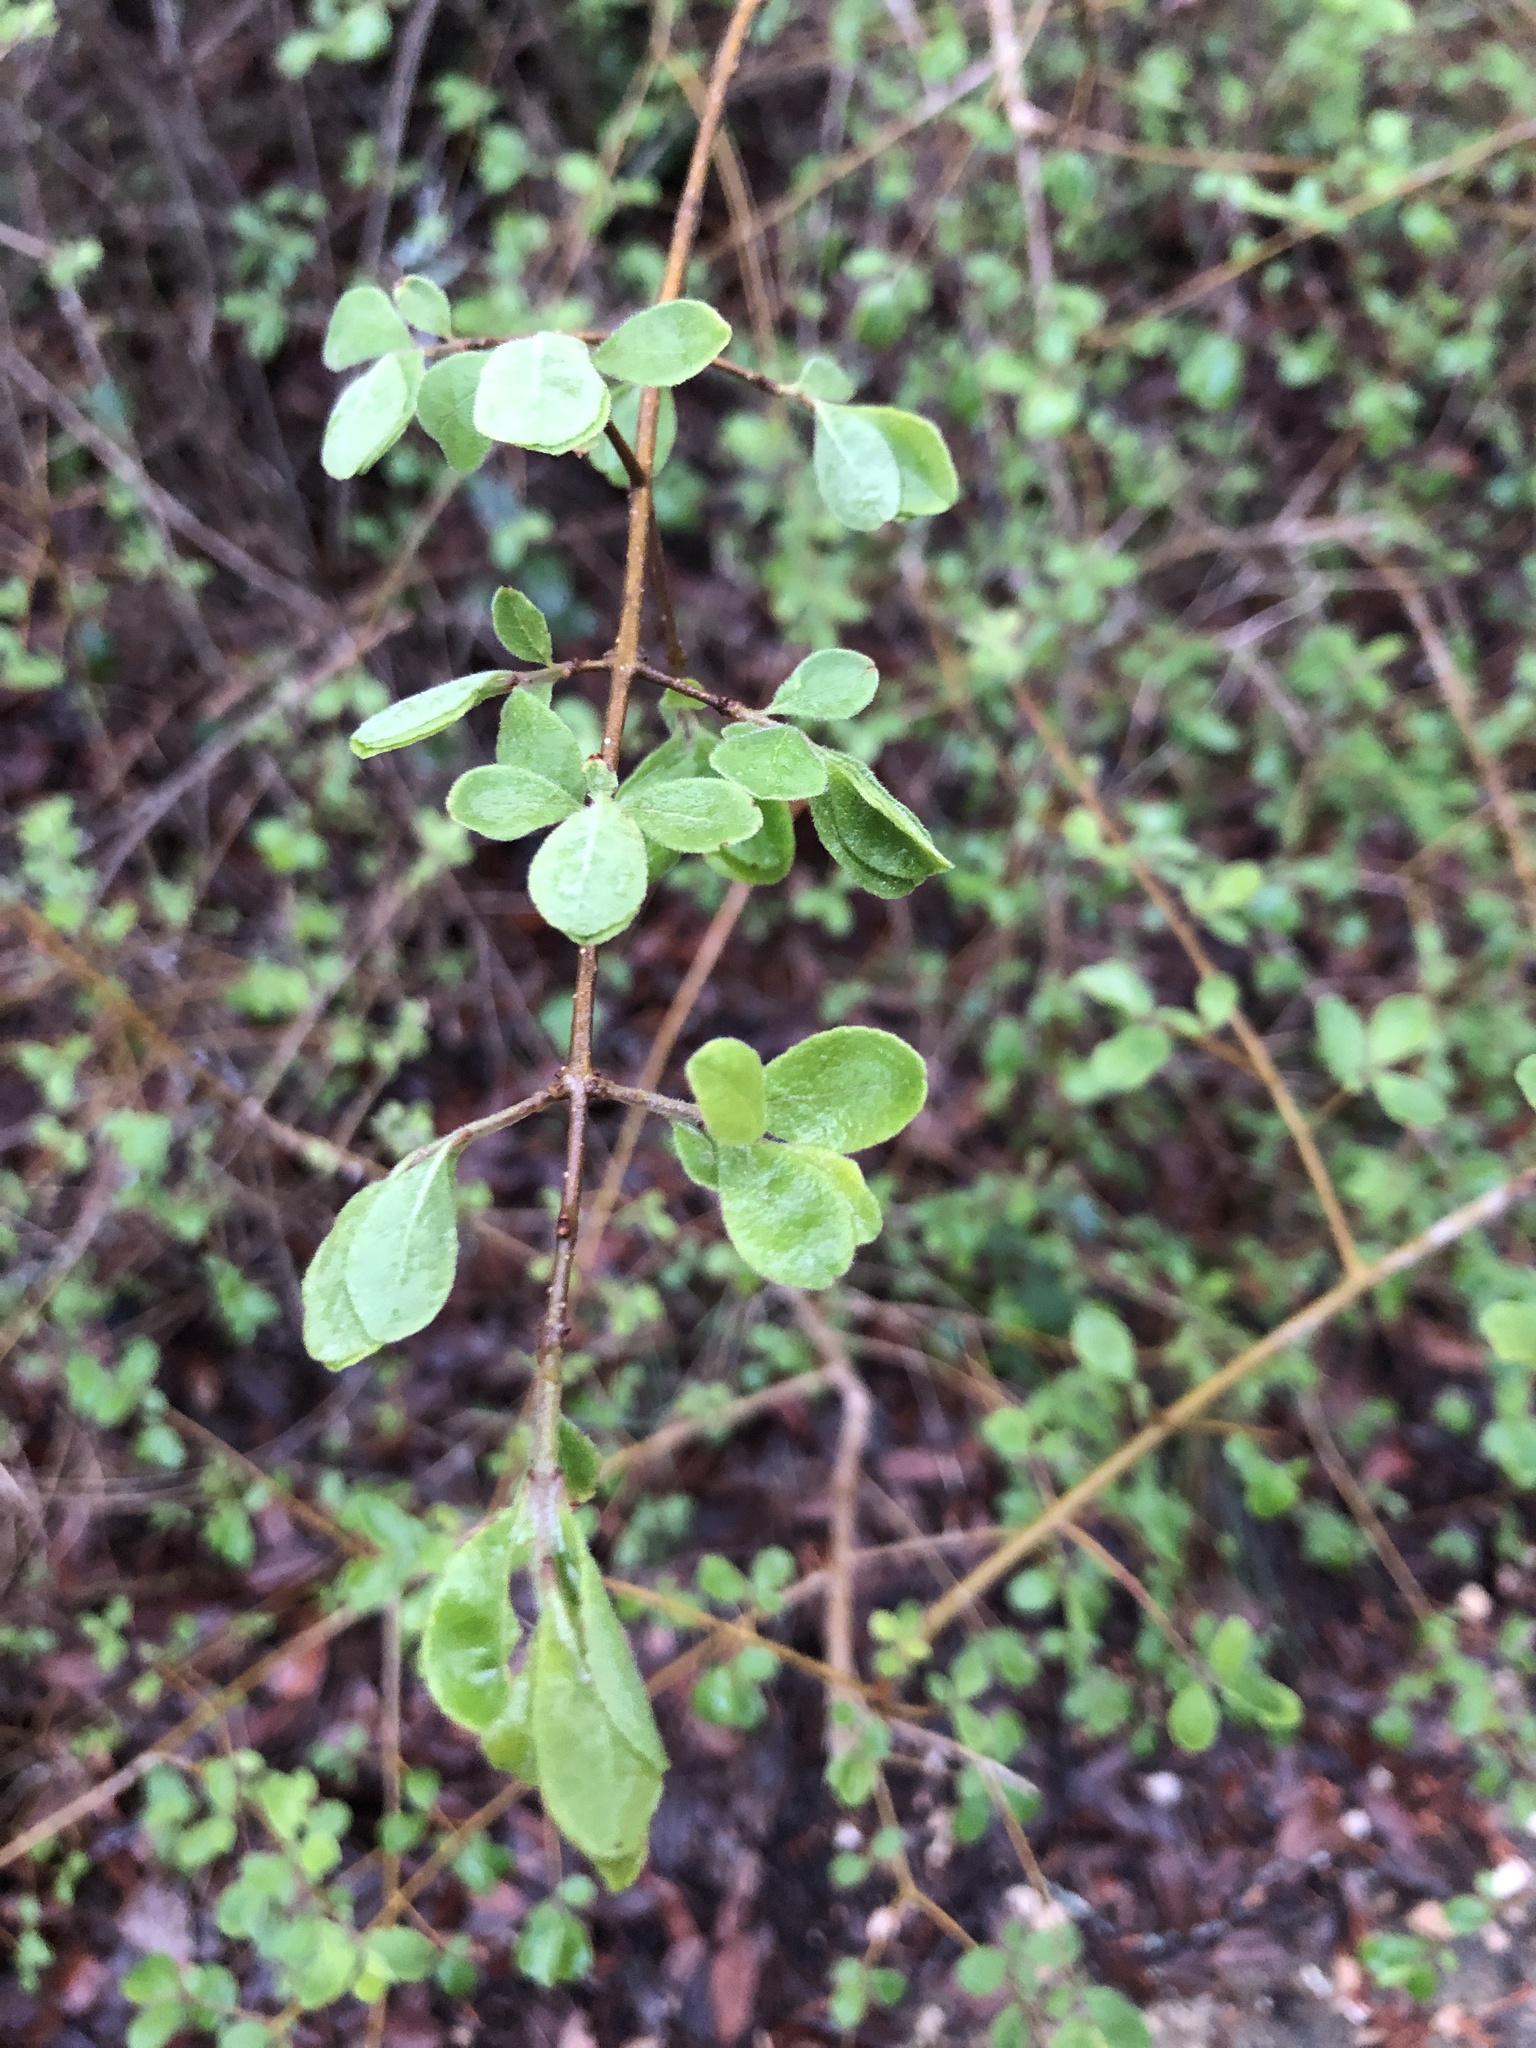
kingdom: Plantae
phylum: Tracheophyta
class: Magnoliopsida
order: Lamiales
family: Oleaceae
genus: Forestiera
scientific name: Forestiera pubescens
